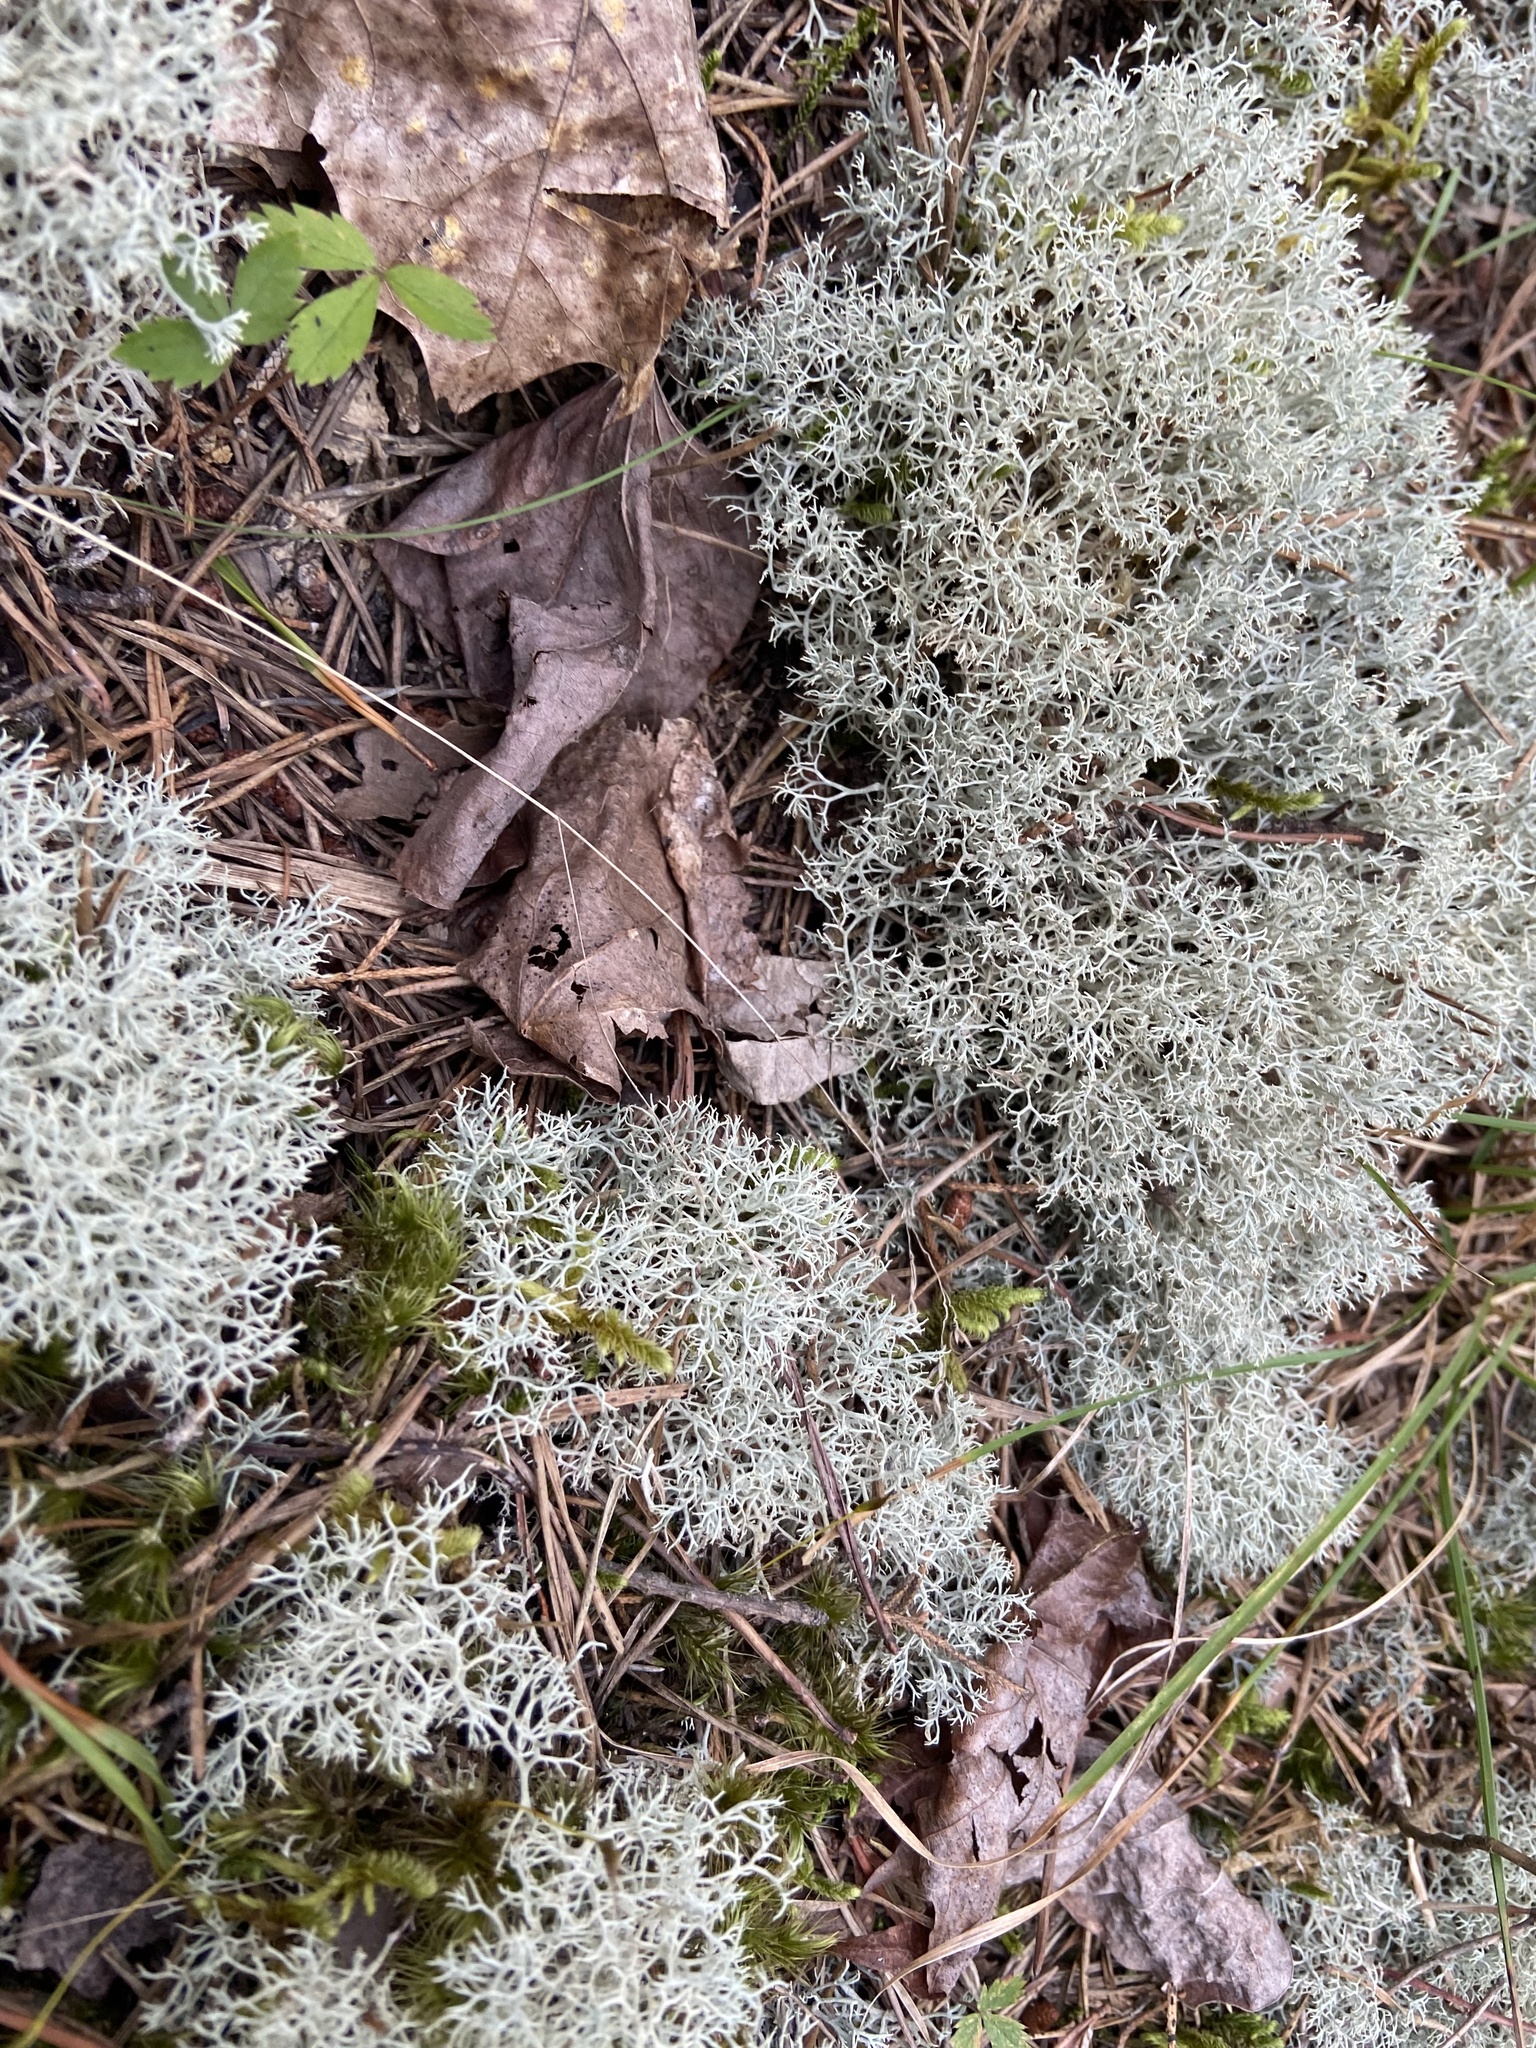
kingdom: Fungi
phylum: Ascomycota
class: Lecanoromycetes
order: Lecanorales
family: Cladoniaceae
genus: Cladonia
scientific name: Cladonia rangiferina
